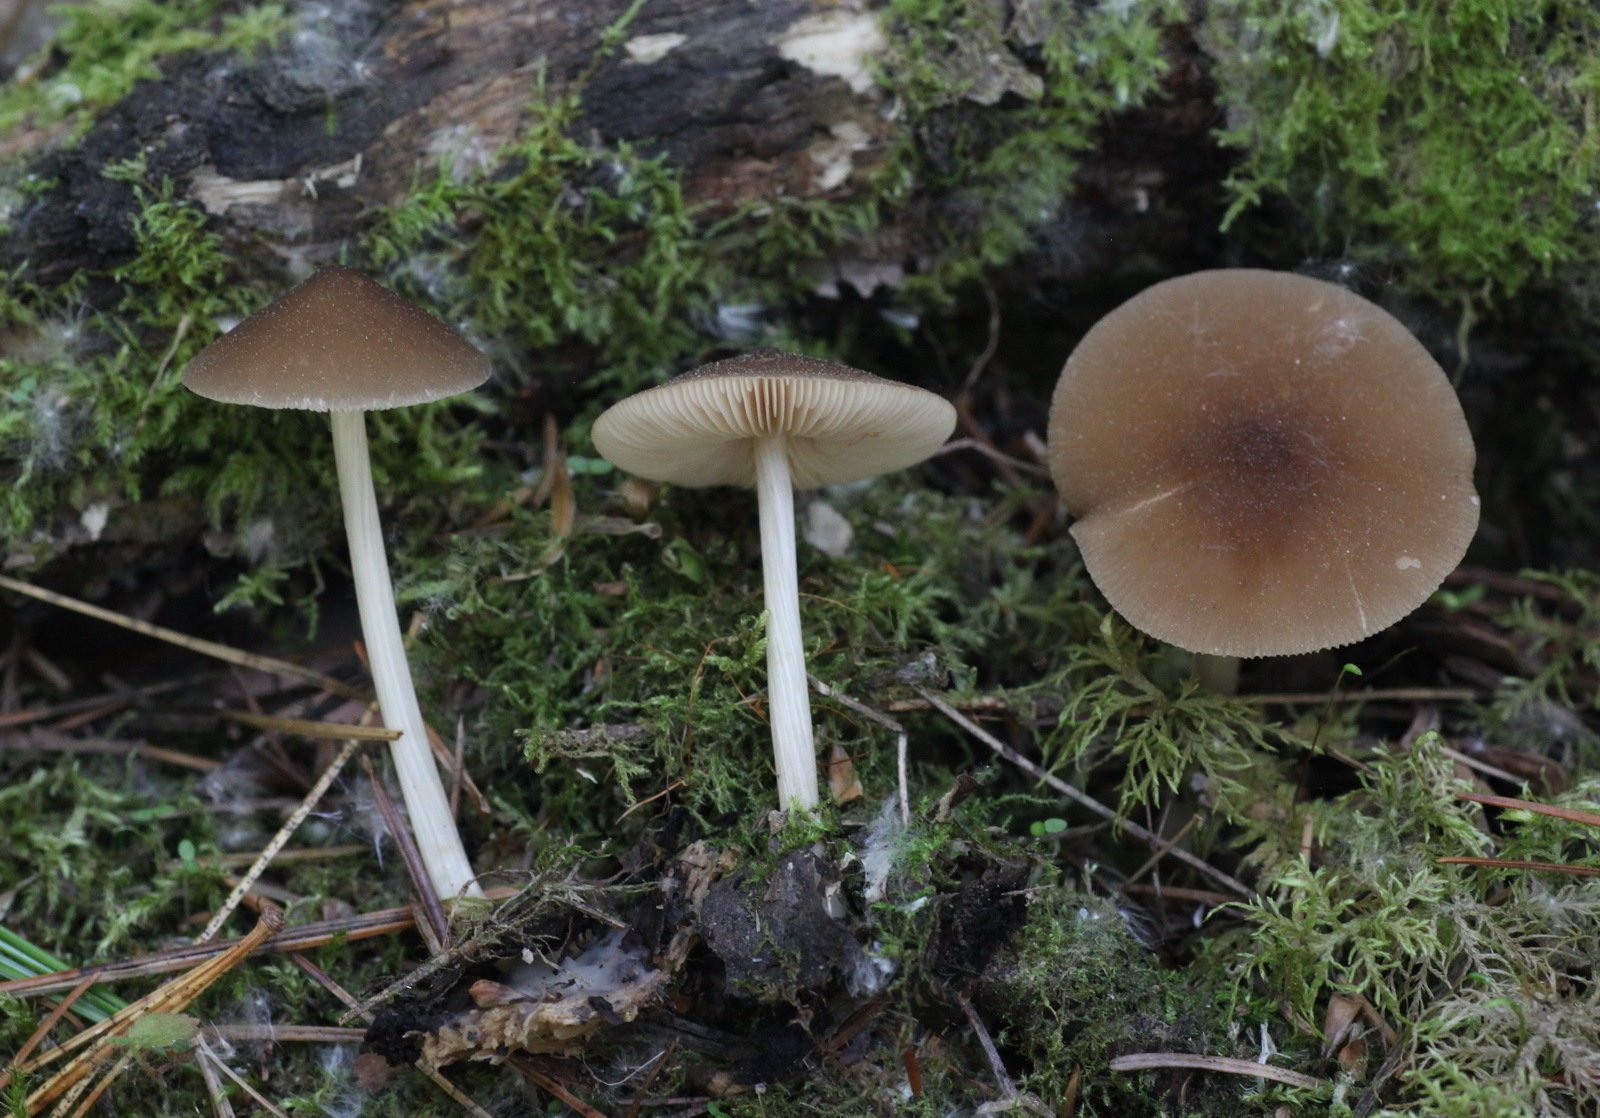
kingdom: Fungi
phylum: Basidiomycota
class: Agaricomycetes
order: Agaricales
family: Pluteaceae
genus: Pluteus
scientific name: Pluteus phlebophorus
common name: Wrinkled shield
